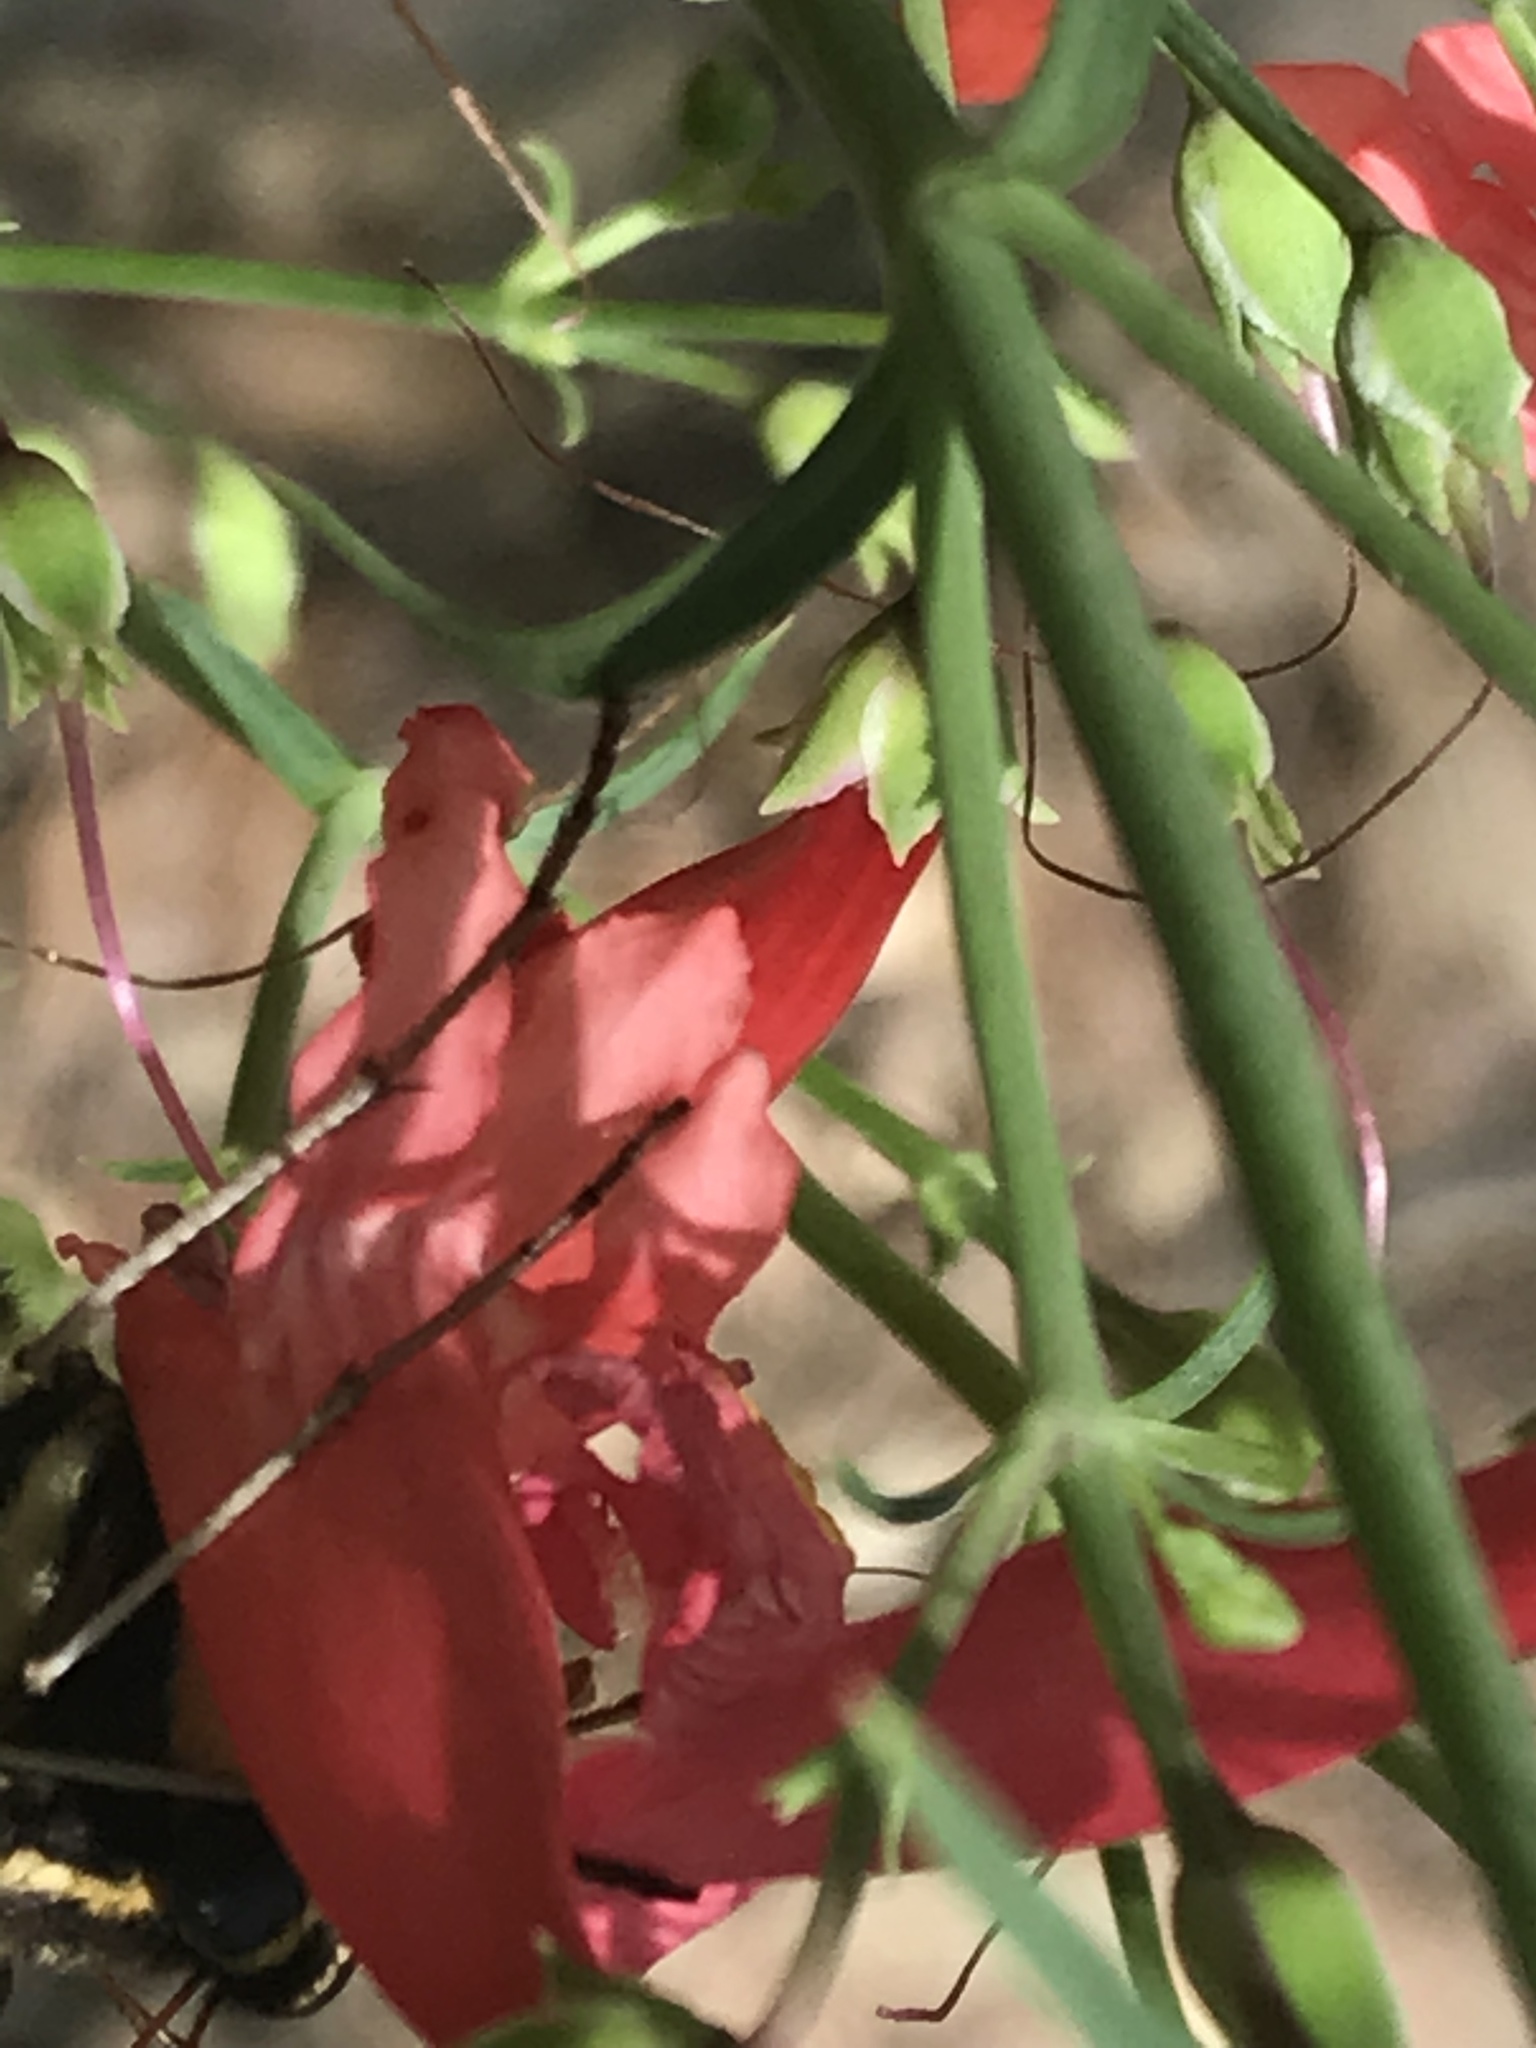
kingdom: Plantae
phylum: Tracheophyta
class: Magnoliopsida
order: Lamiales
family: Plantaginaceae
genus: Penstemon
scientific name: Penstemon barbatus
